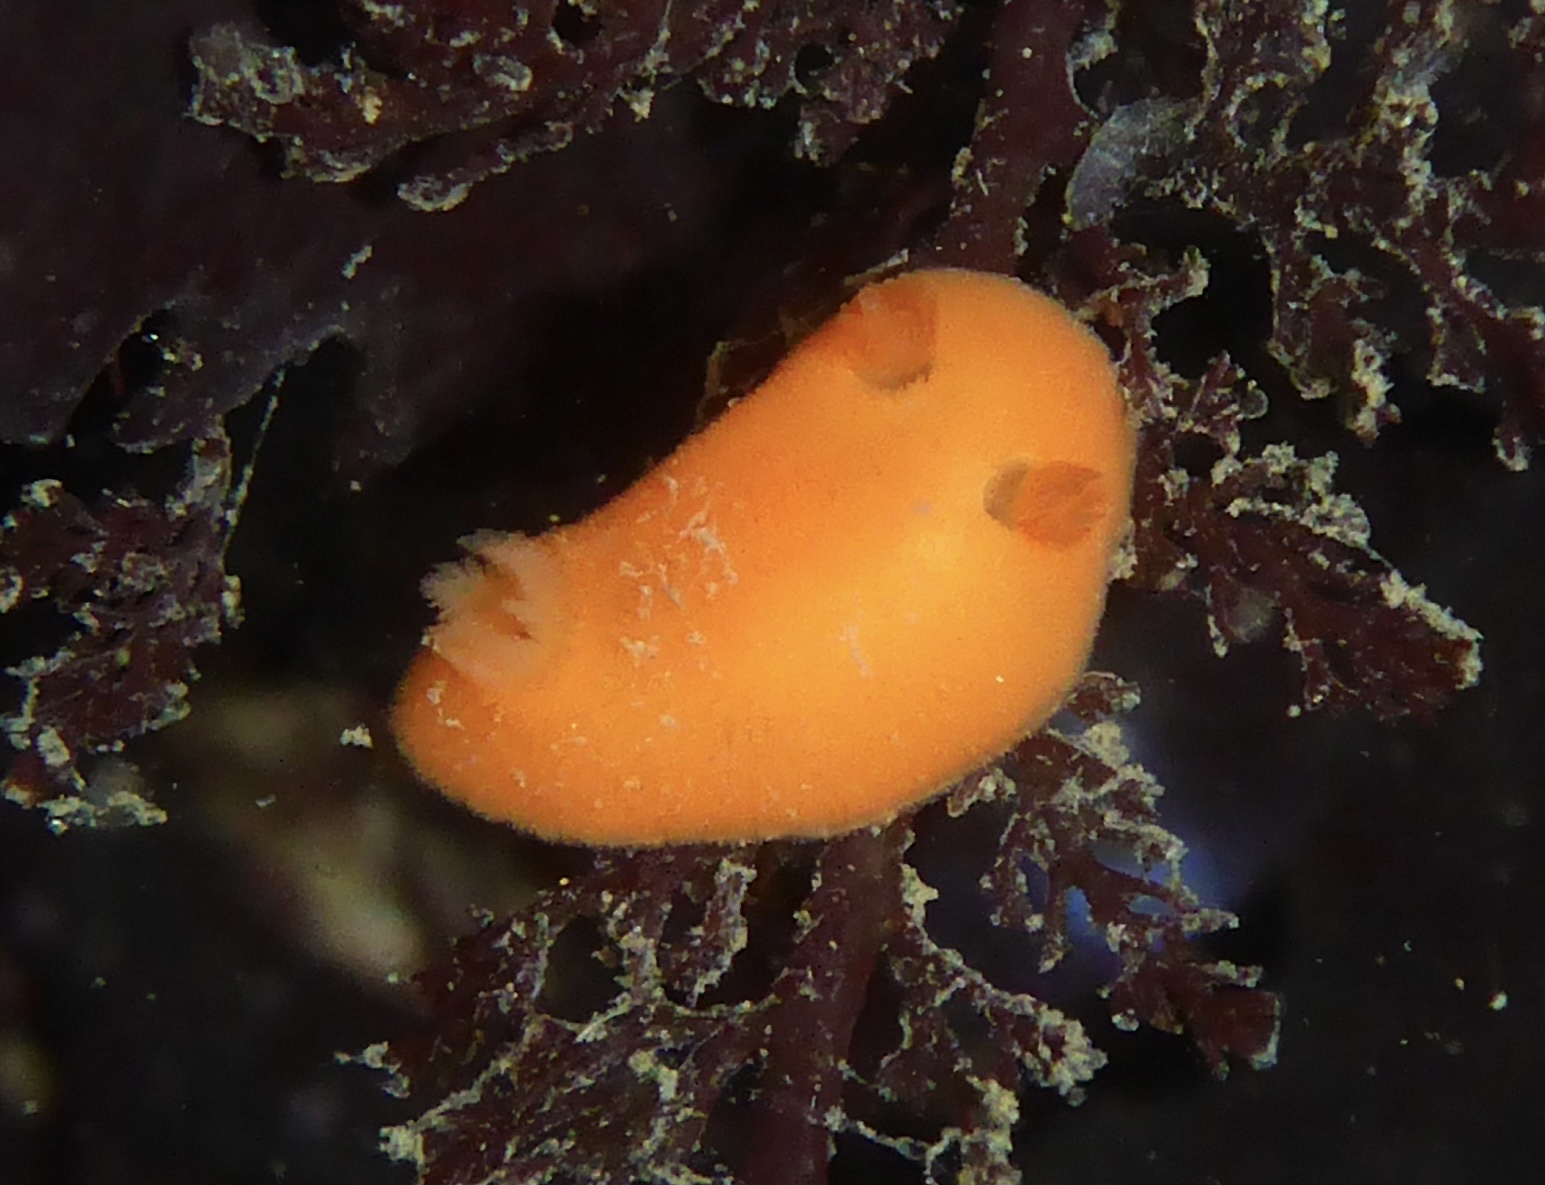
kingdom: Animalia
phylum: Mollusca
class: Gastropoda
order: Nudibranchia
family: Discodorididae
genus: Rostanga
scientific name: Rostanga pulchra
